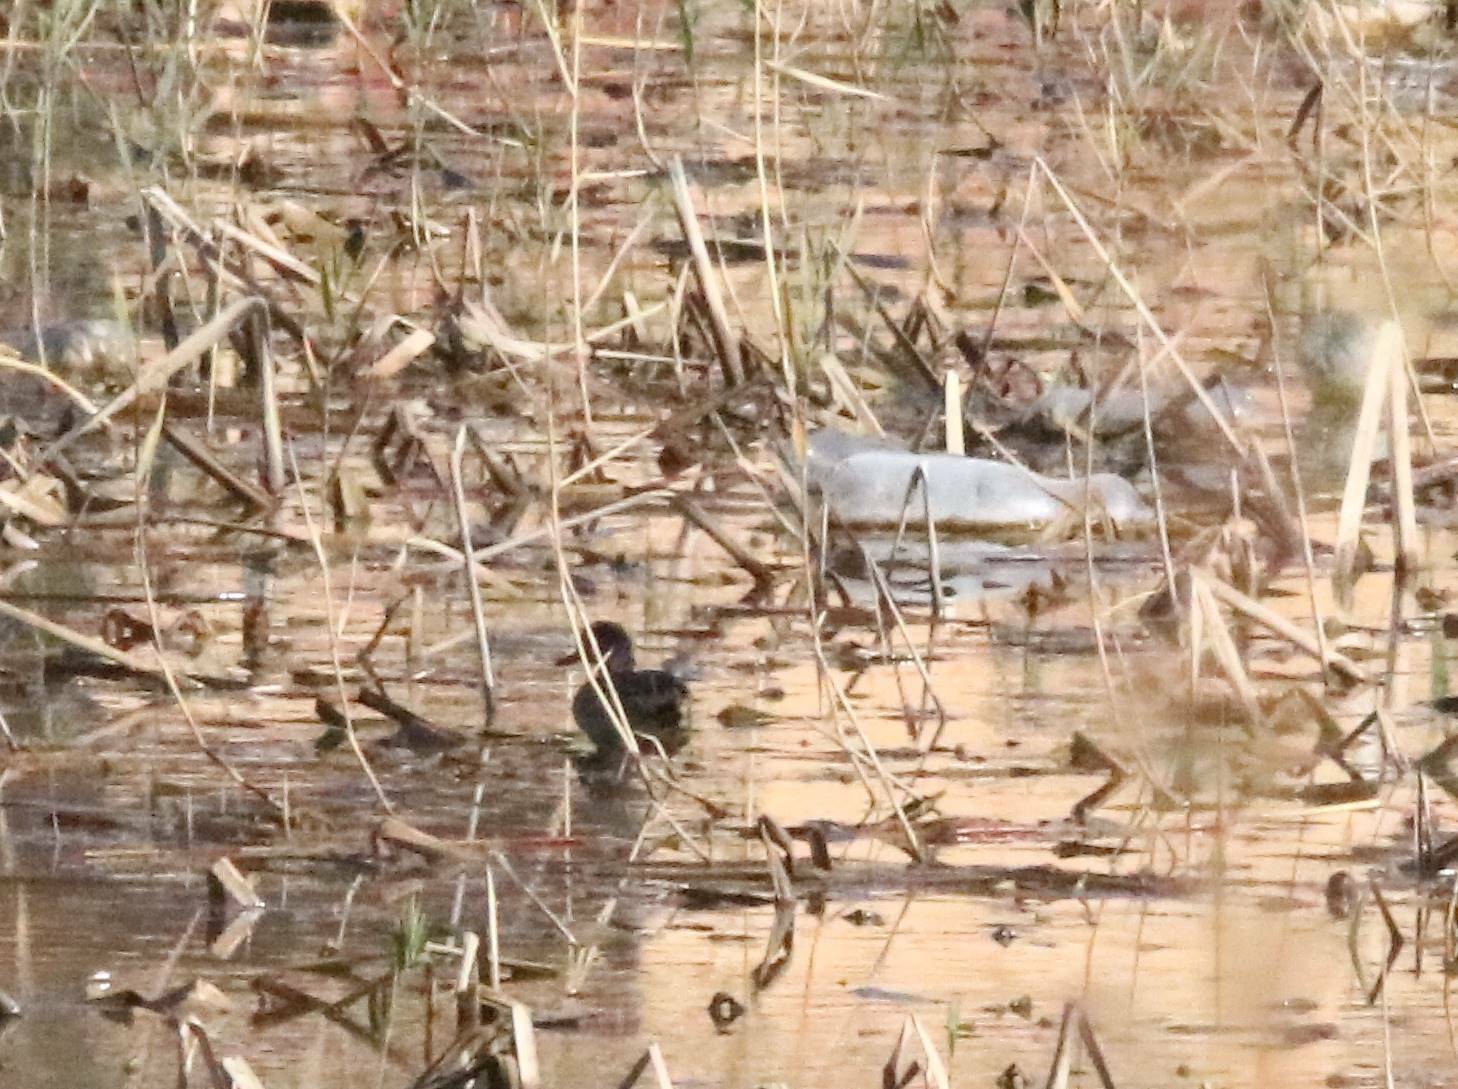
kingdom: Animalia
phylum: Chordata
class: Aves
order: Anseriformes
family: Anatidae
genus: Anas
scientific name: Anas crecca
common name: Eurasian teal
